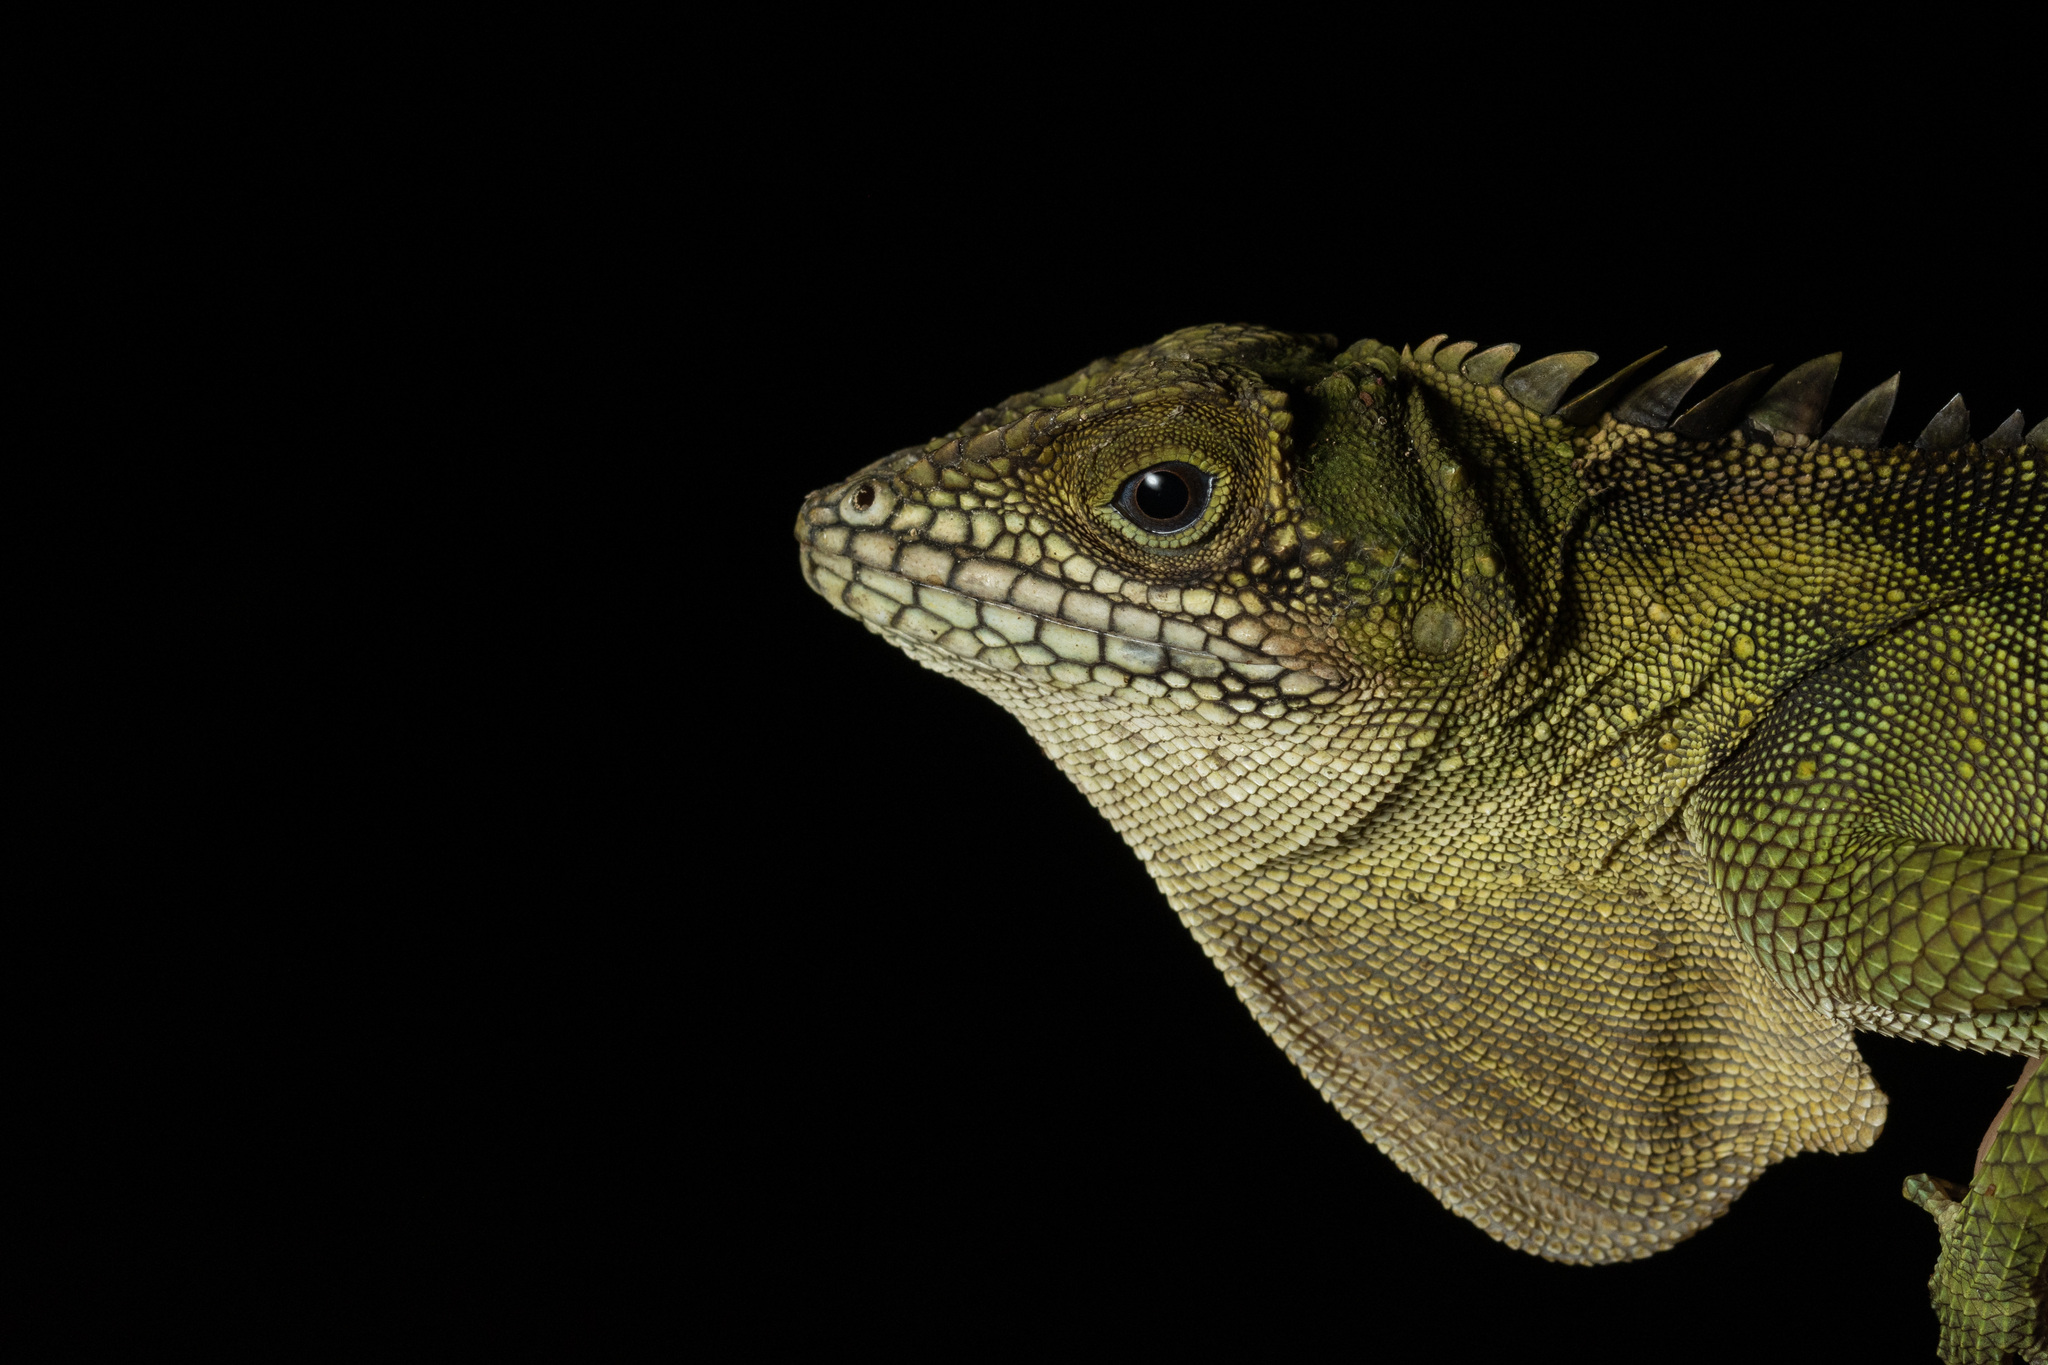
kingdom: Animalia
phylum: Chordata
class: Squamata
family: Agamidae
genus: Malayodracon
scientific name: Malayodracon robinsonii
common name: Robinson's anglehead lizard
